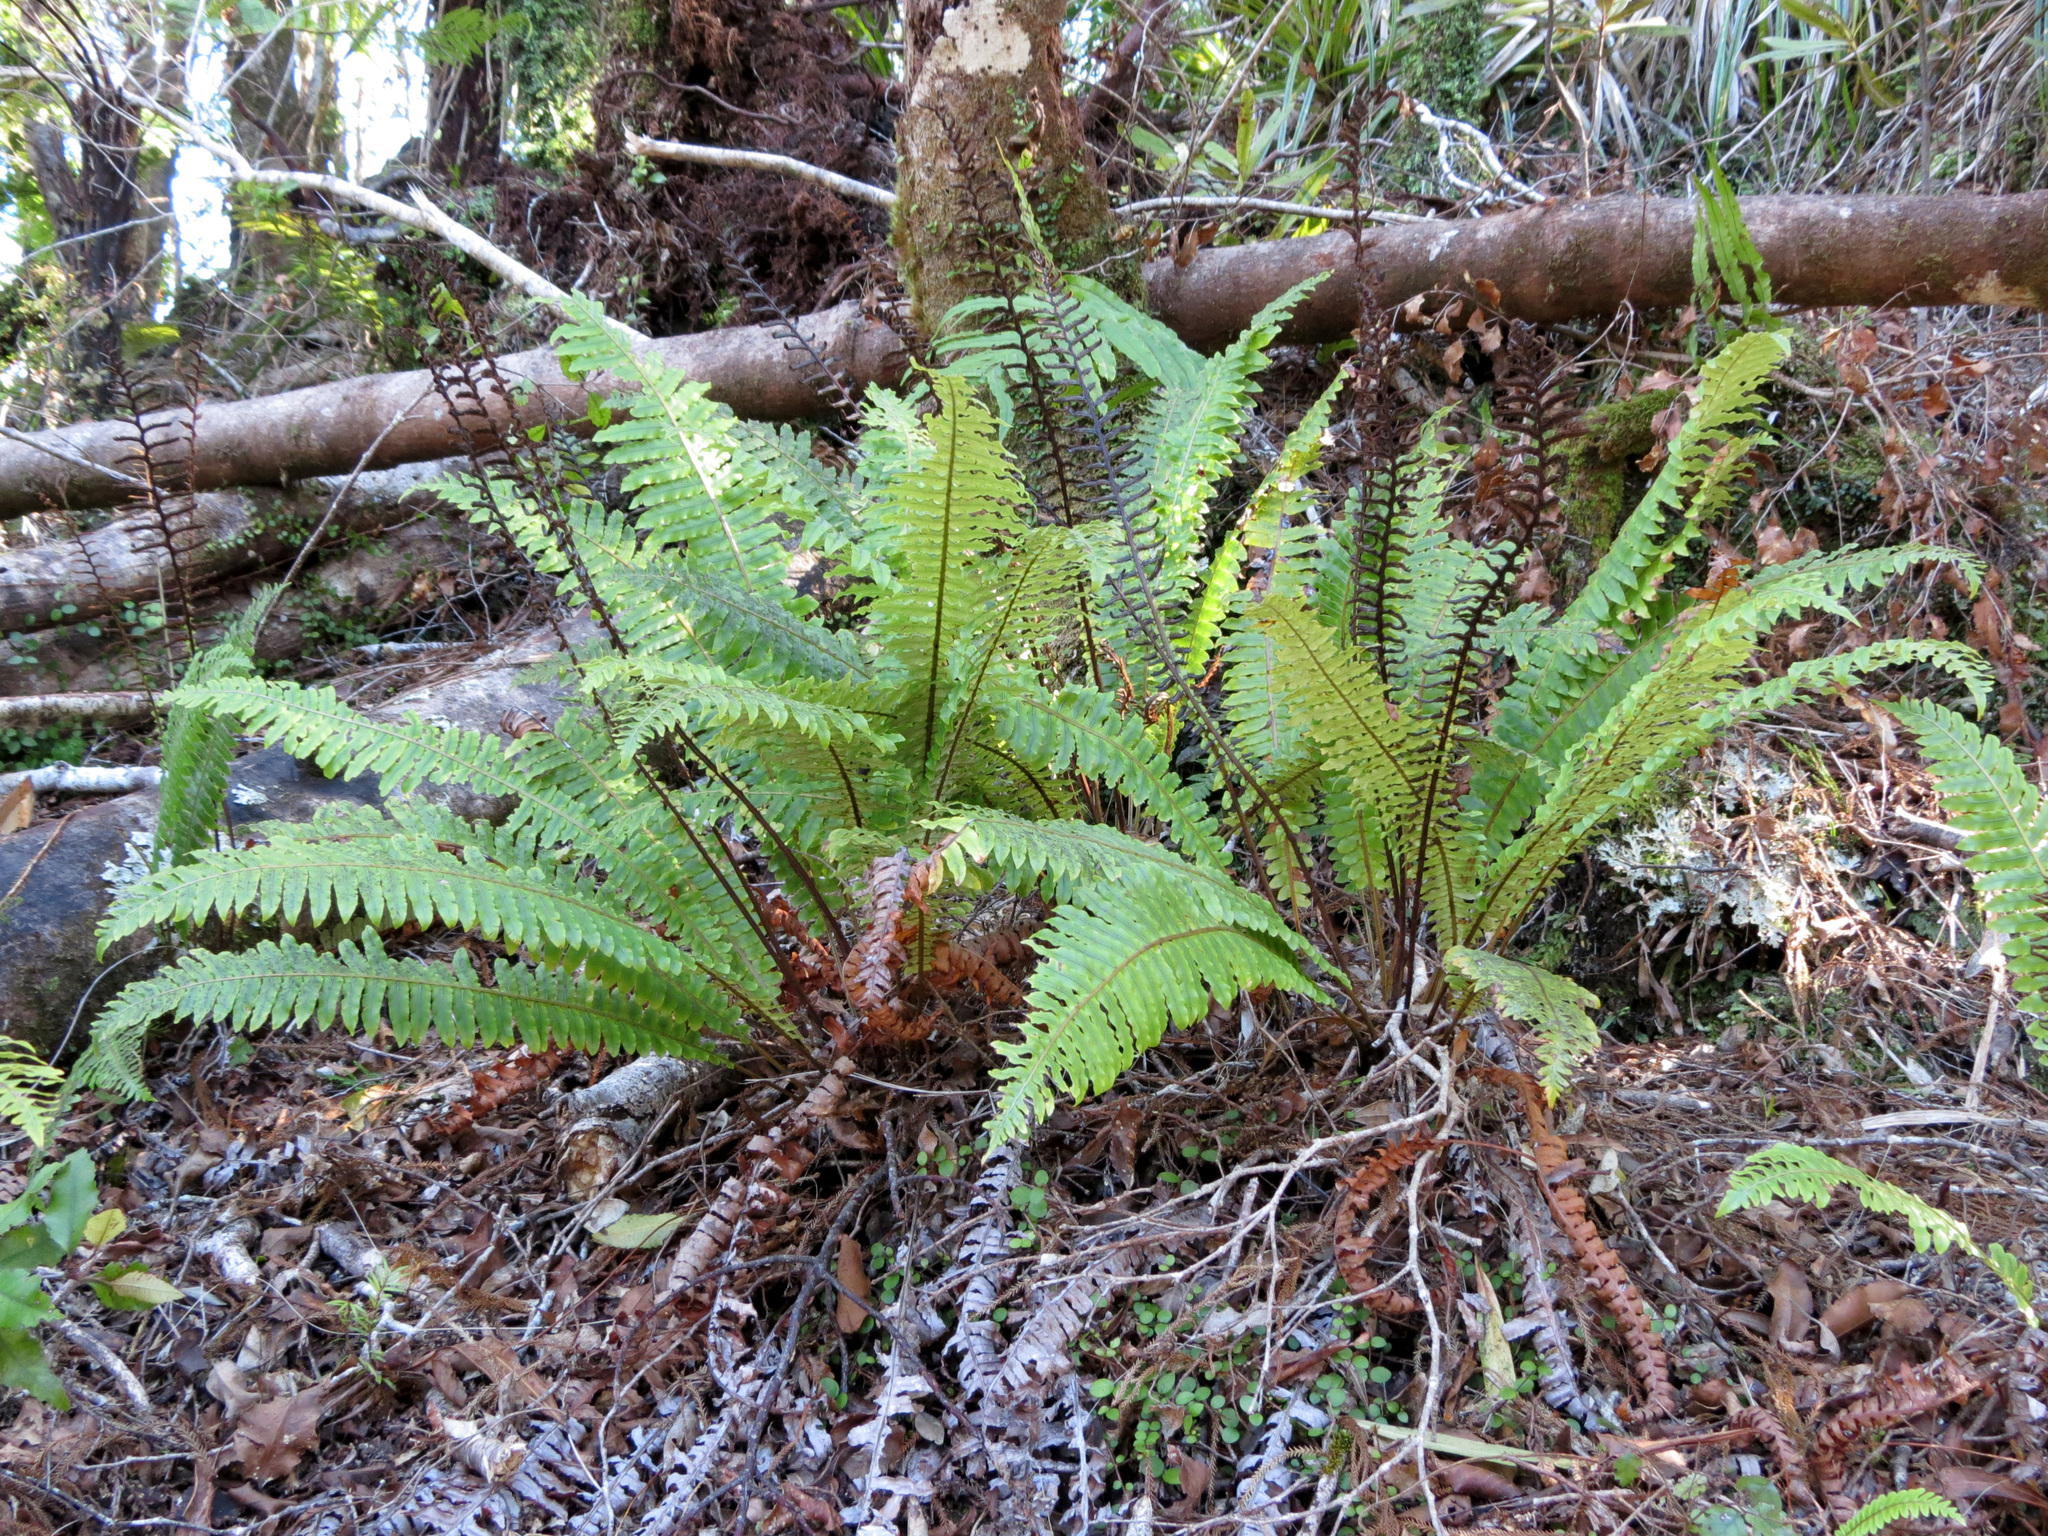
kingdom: Plantae
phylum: Tracheophyta
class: Polypodiopsida
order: Polypodiales
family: Blechnaceae
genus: Lomaria
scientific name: Lomaria discolor
